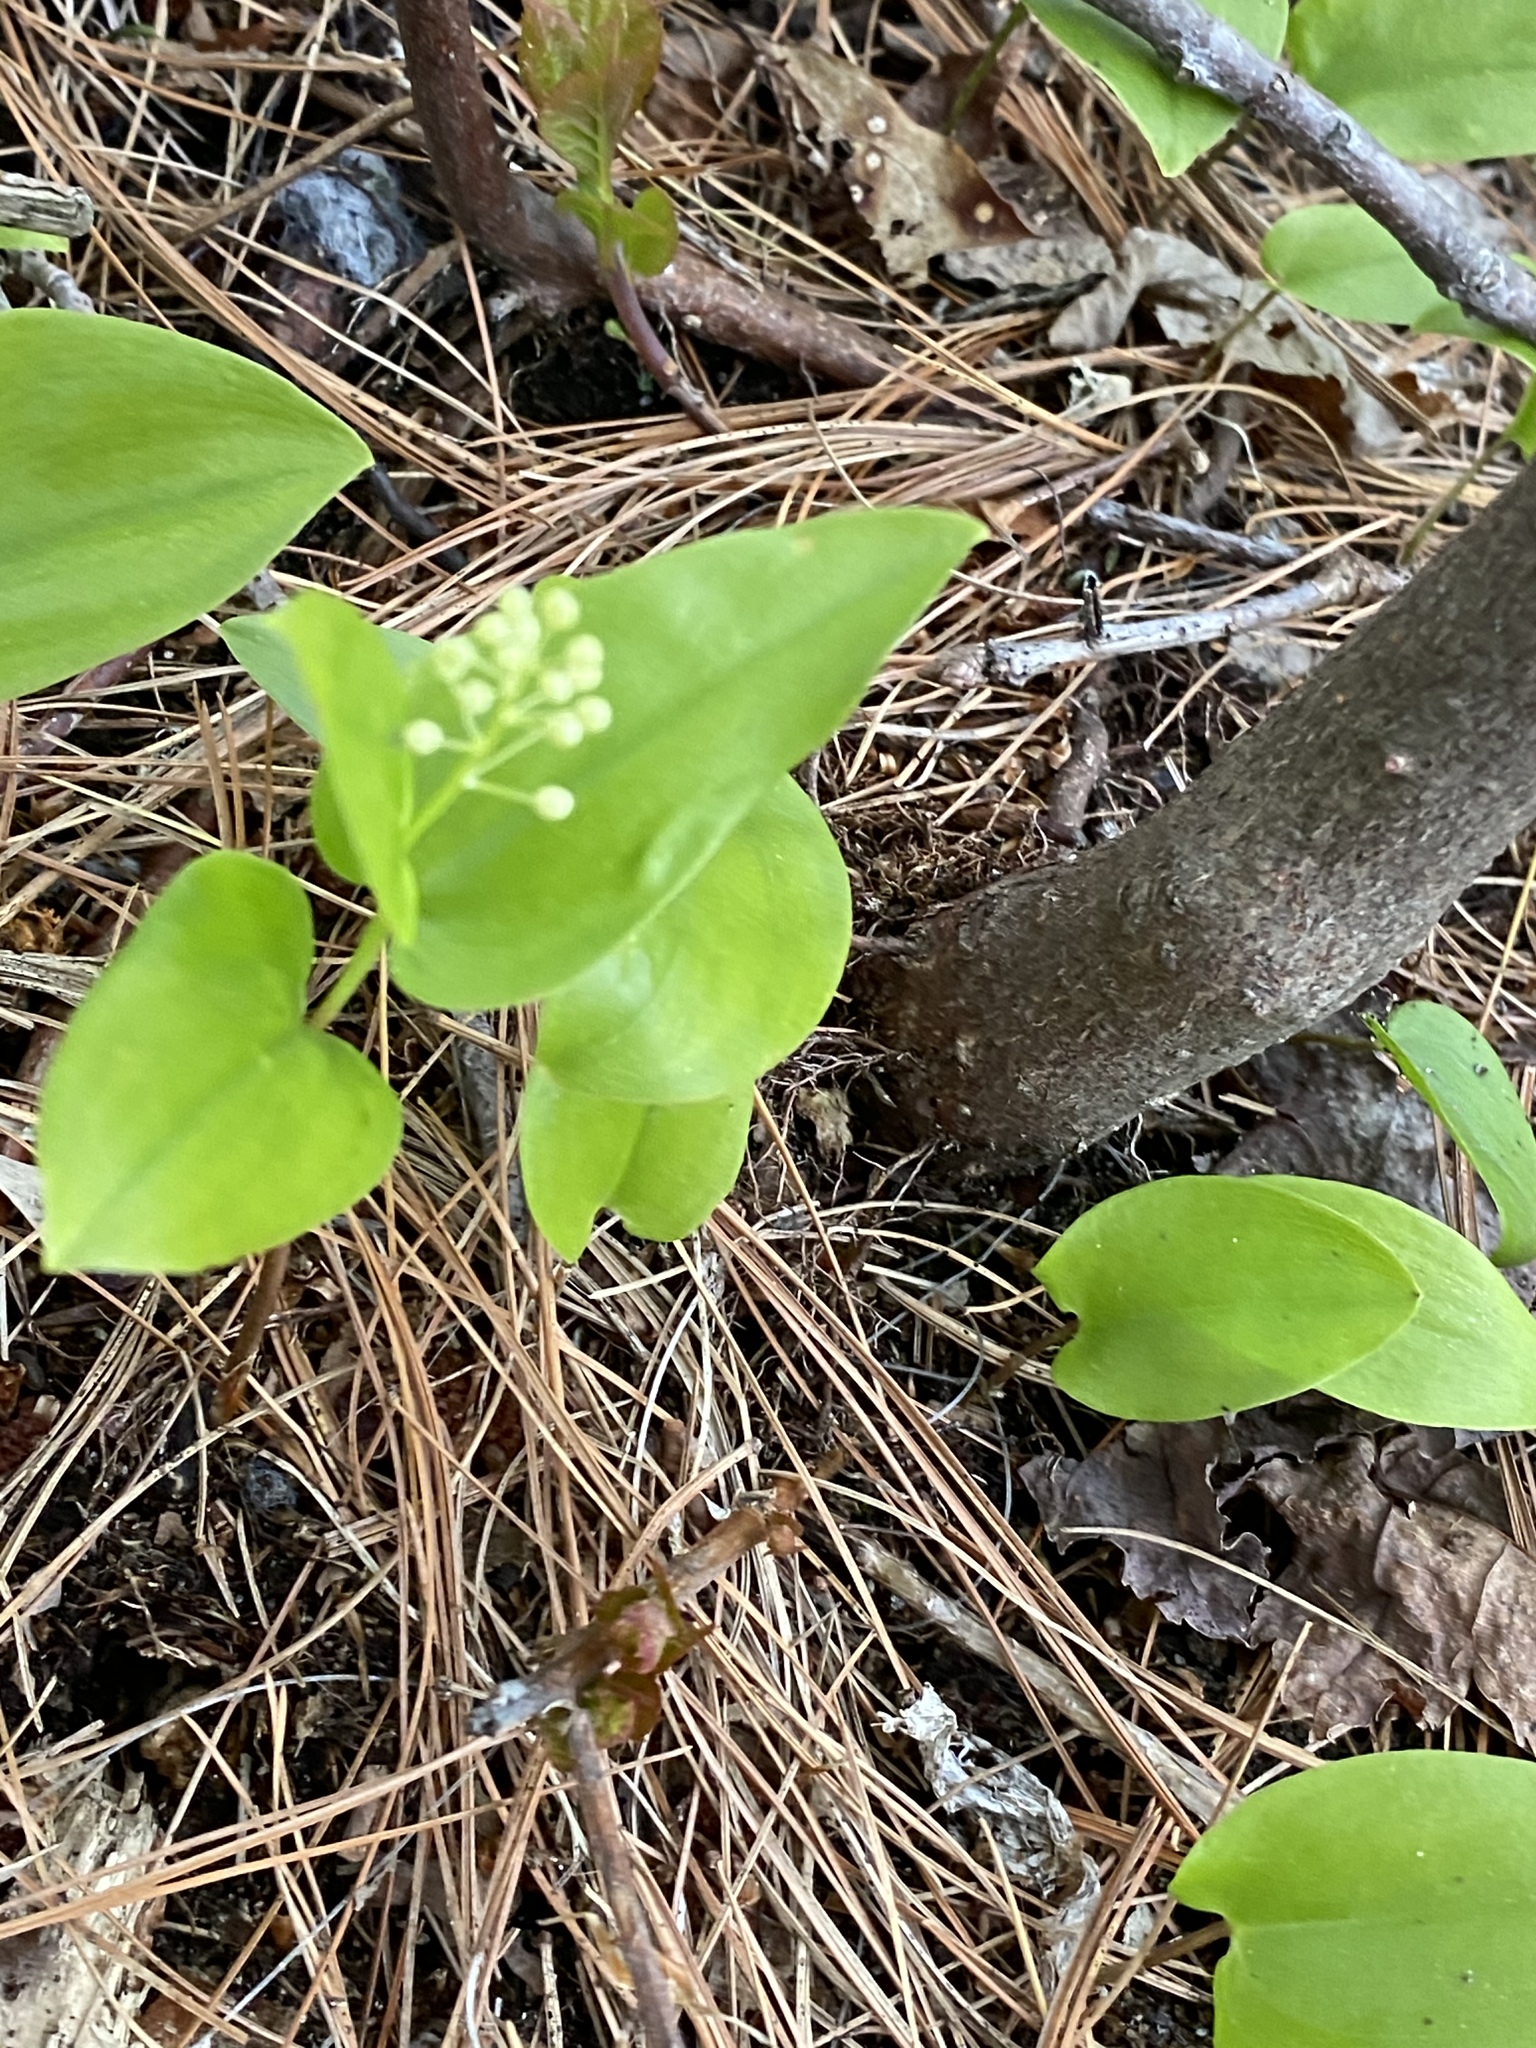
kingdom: Plantae
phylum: Tracheophyta
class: Liliopsida
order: Asparagales
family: Asparagaceae
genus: Maianthemum
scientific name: Maianthemum canadense
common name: False lily-of-the-valley
